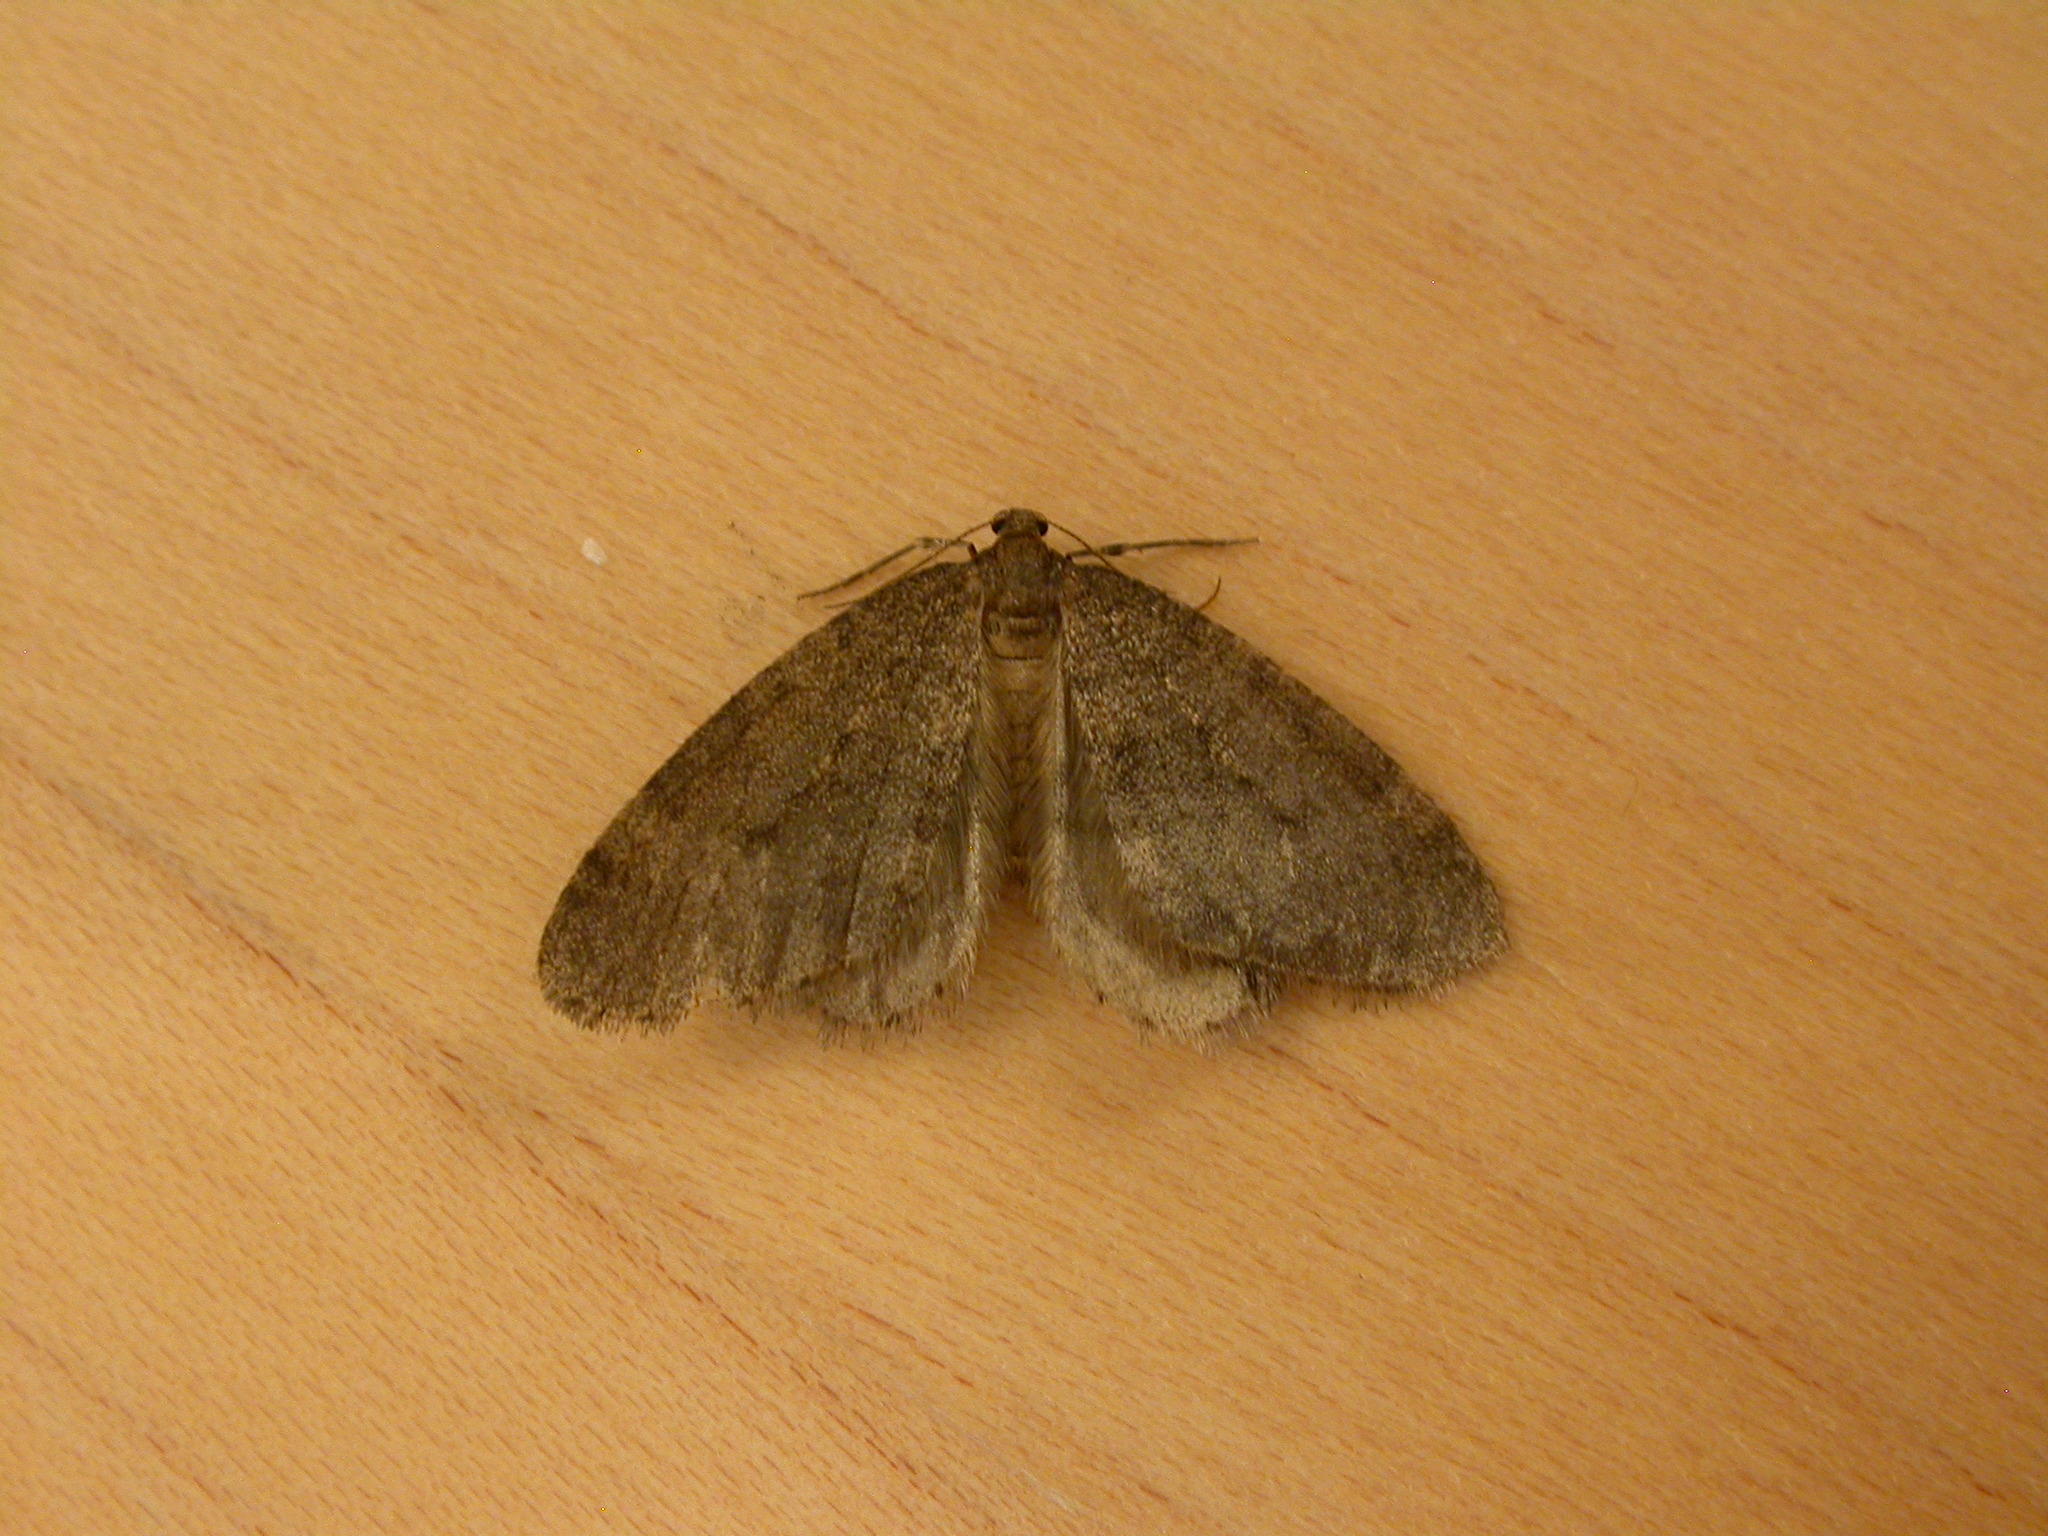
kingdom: Animalia
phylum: Arthropoda
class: Insecta
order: Lepidoptera
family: Geometridae
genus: Operophtera
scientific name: Operophtera brumata
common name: Winter moth
